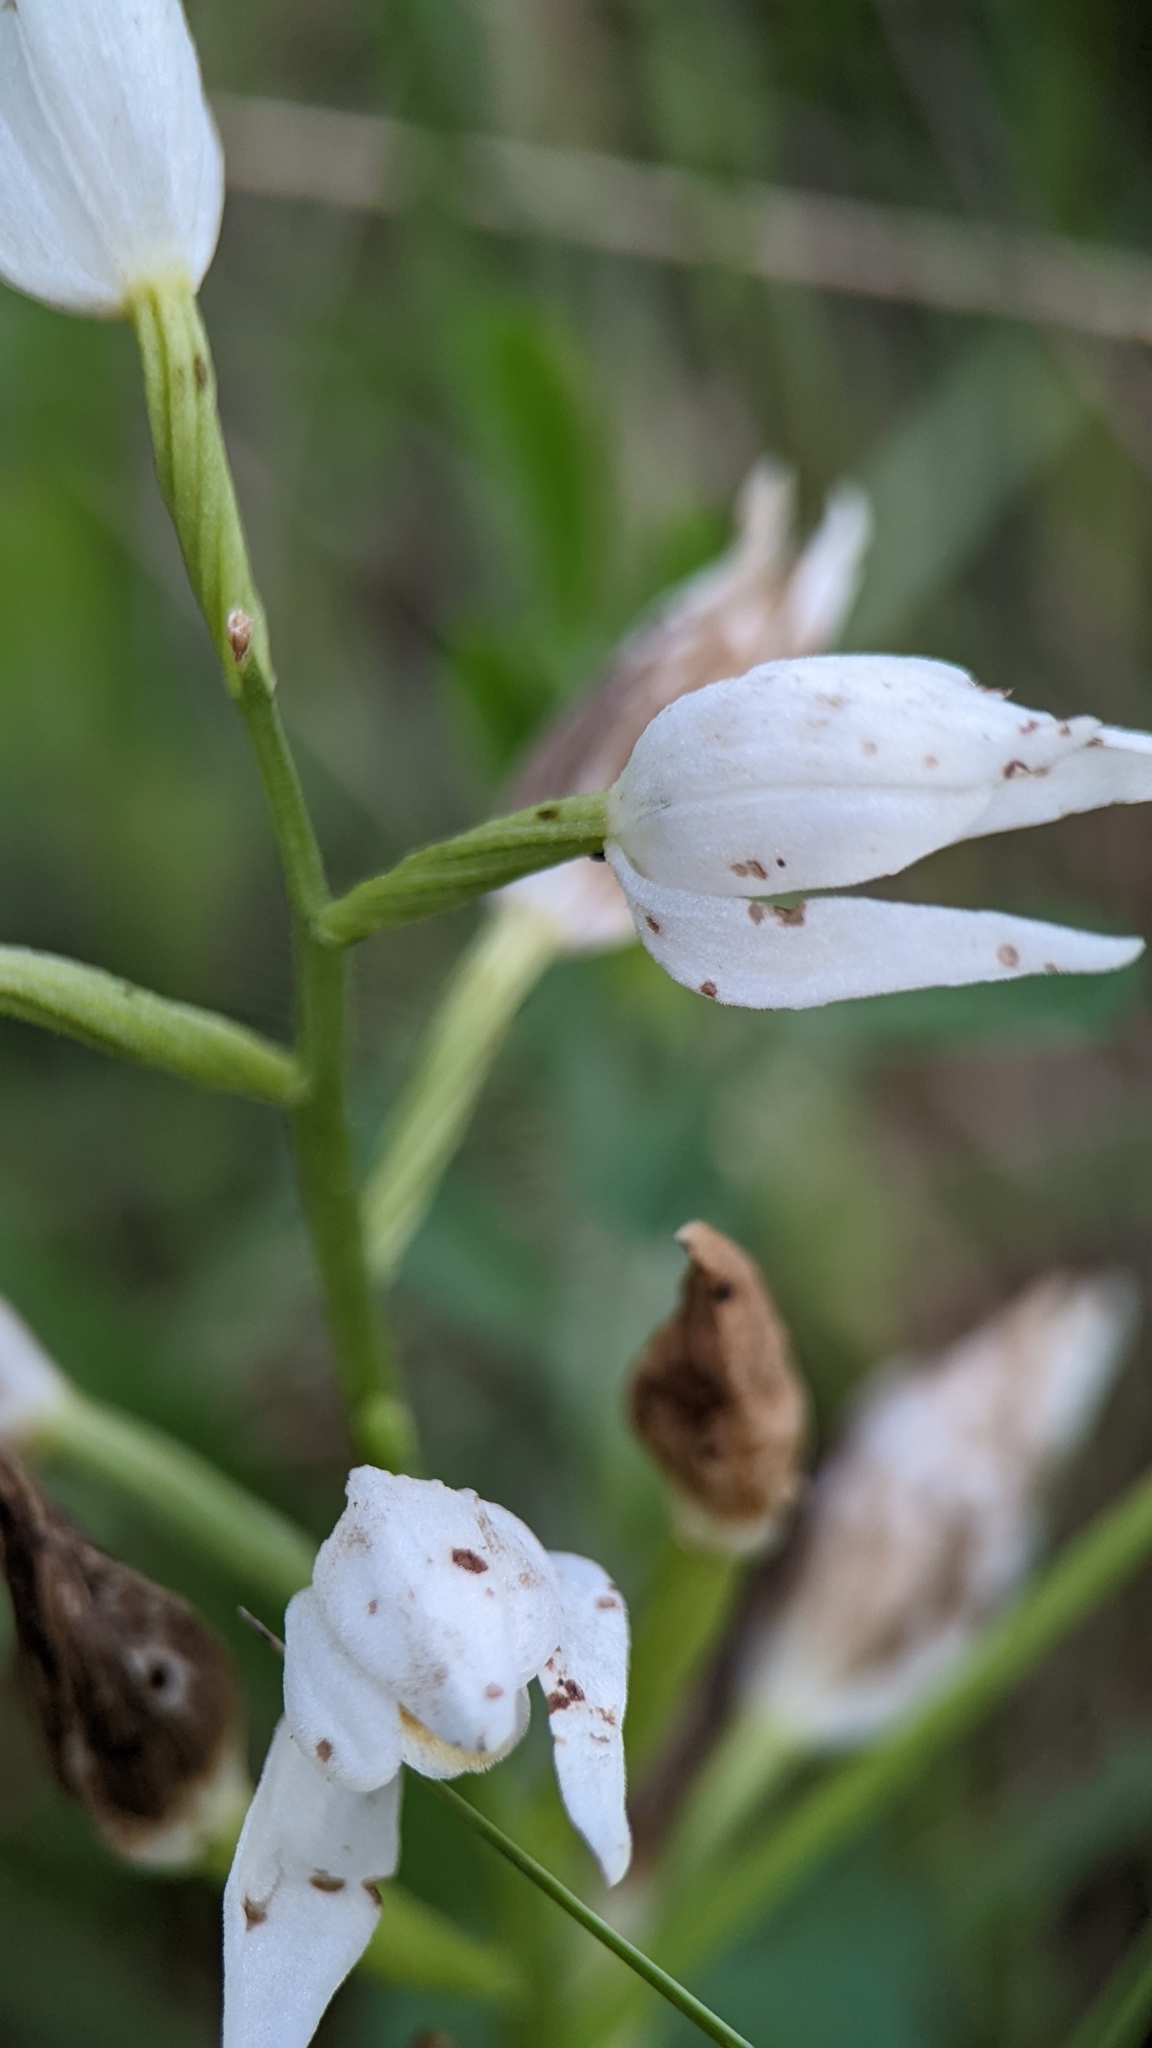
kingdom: Animalia
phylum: Arthropoda
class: Insecta
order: Hemiptera
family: Cercopidae
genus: Haematoloma
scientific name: Haematoloma dorsata
